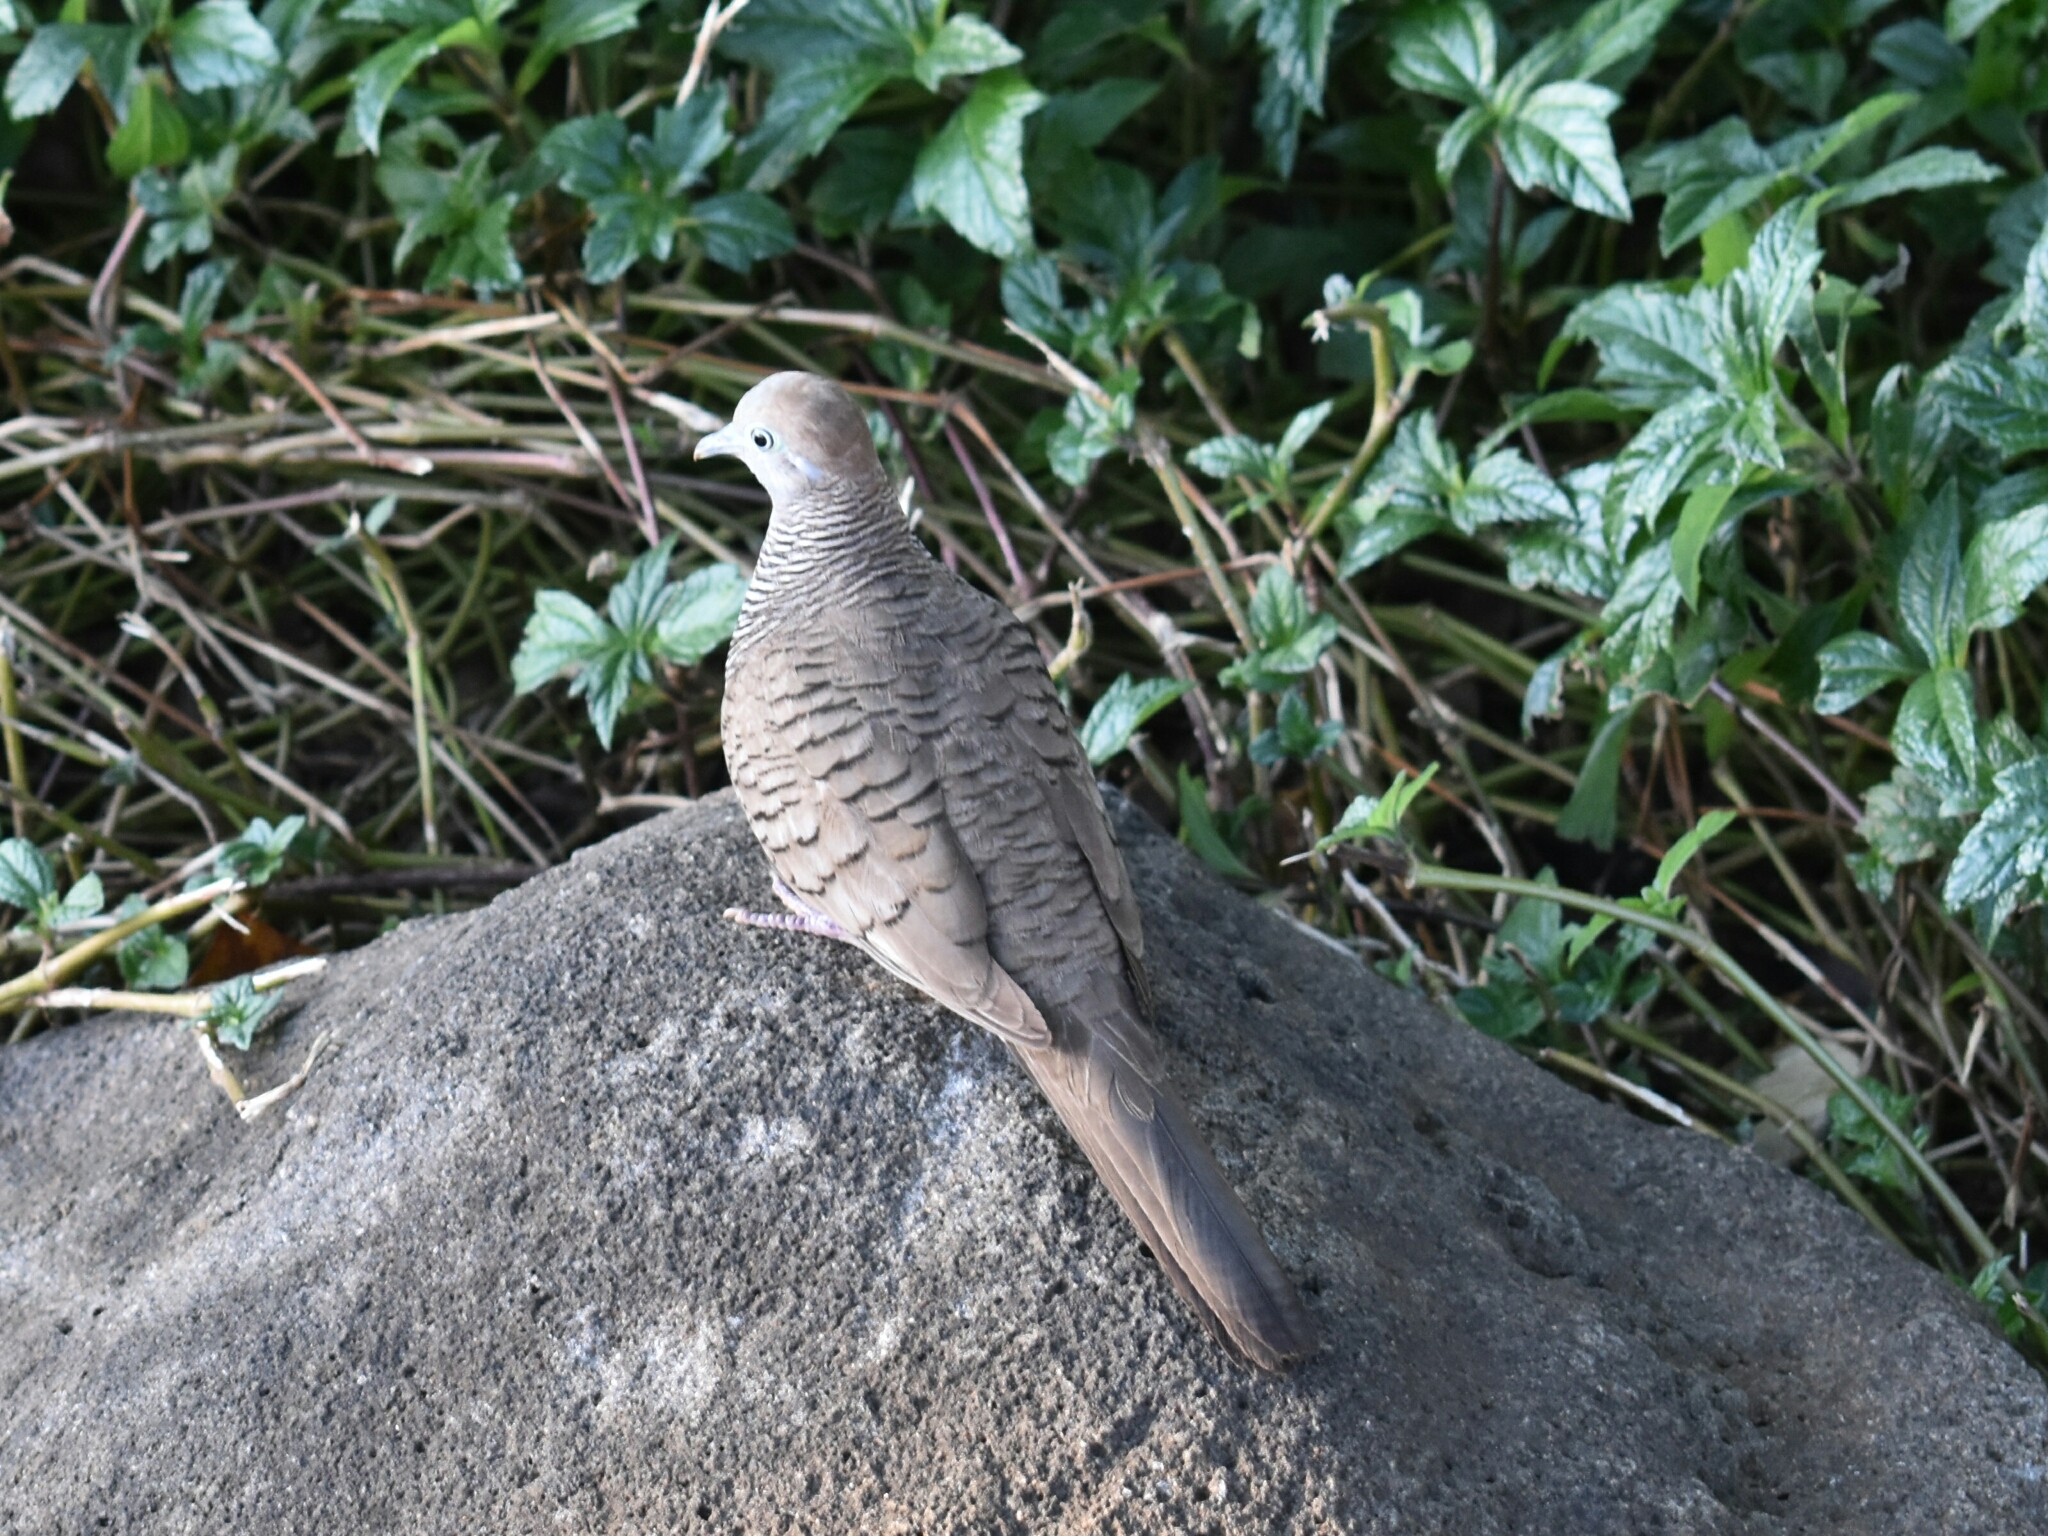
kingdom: Animalia
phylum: Chordata
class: Aves
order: Columbiformes
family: Columbidae
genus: Geopelia
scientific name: Geopelia striata
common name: Zebra dove
